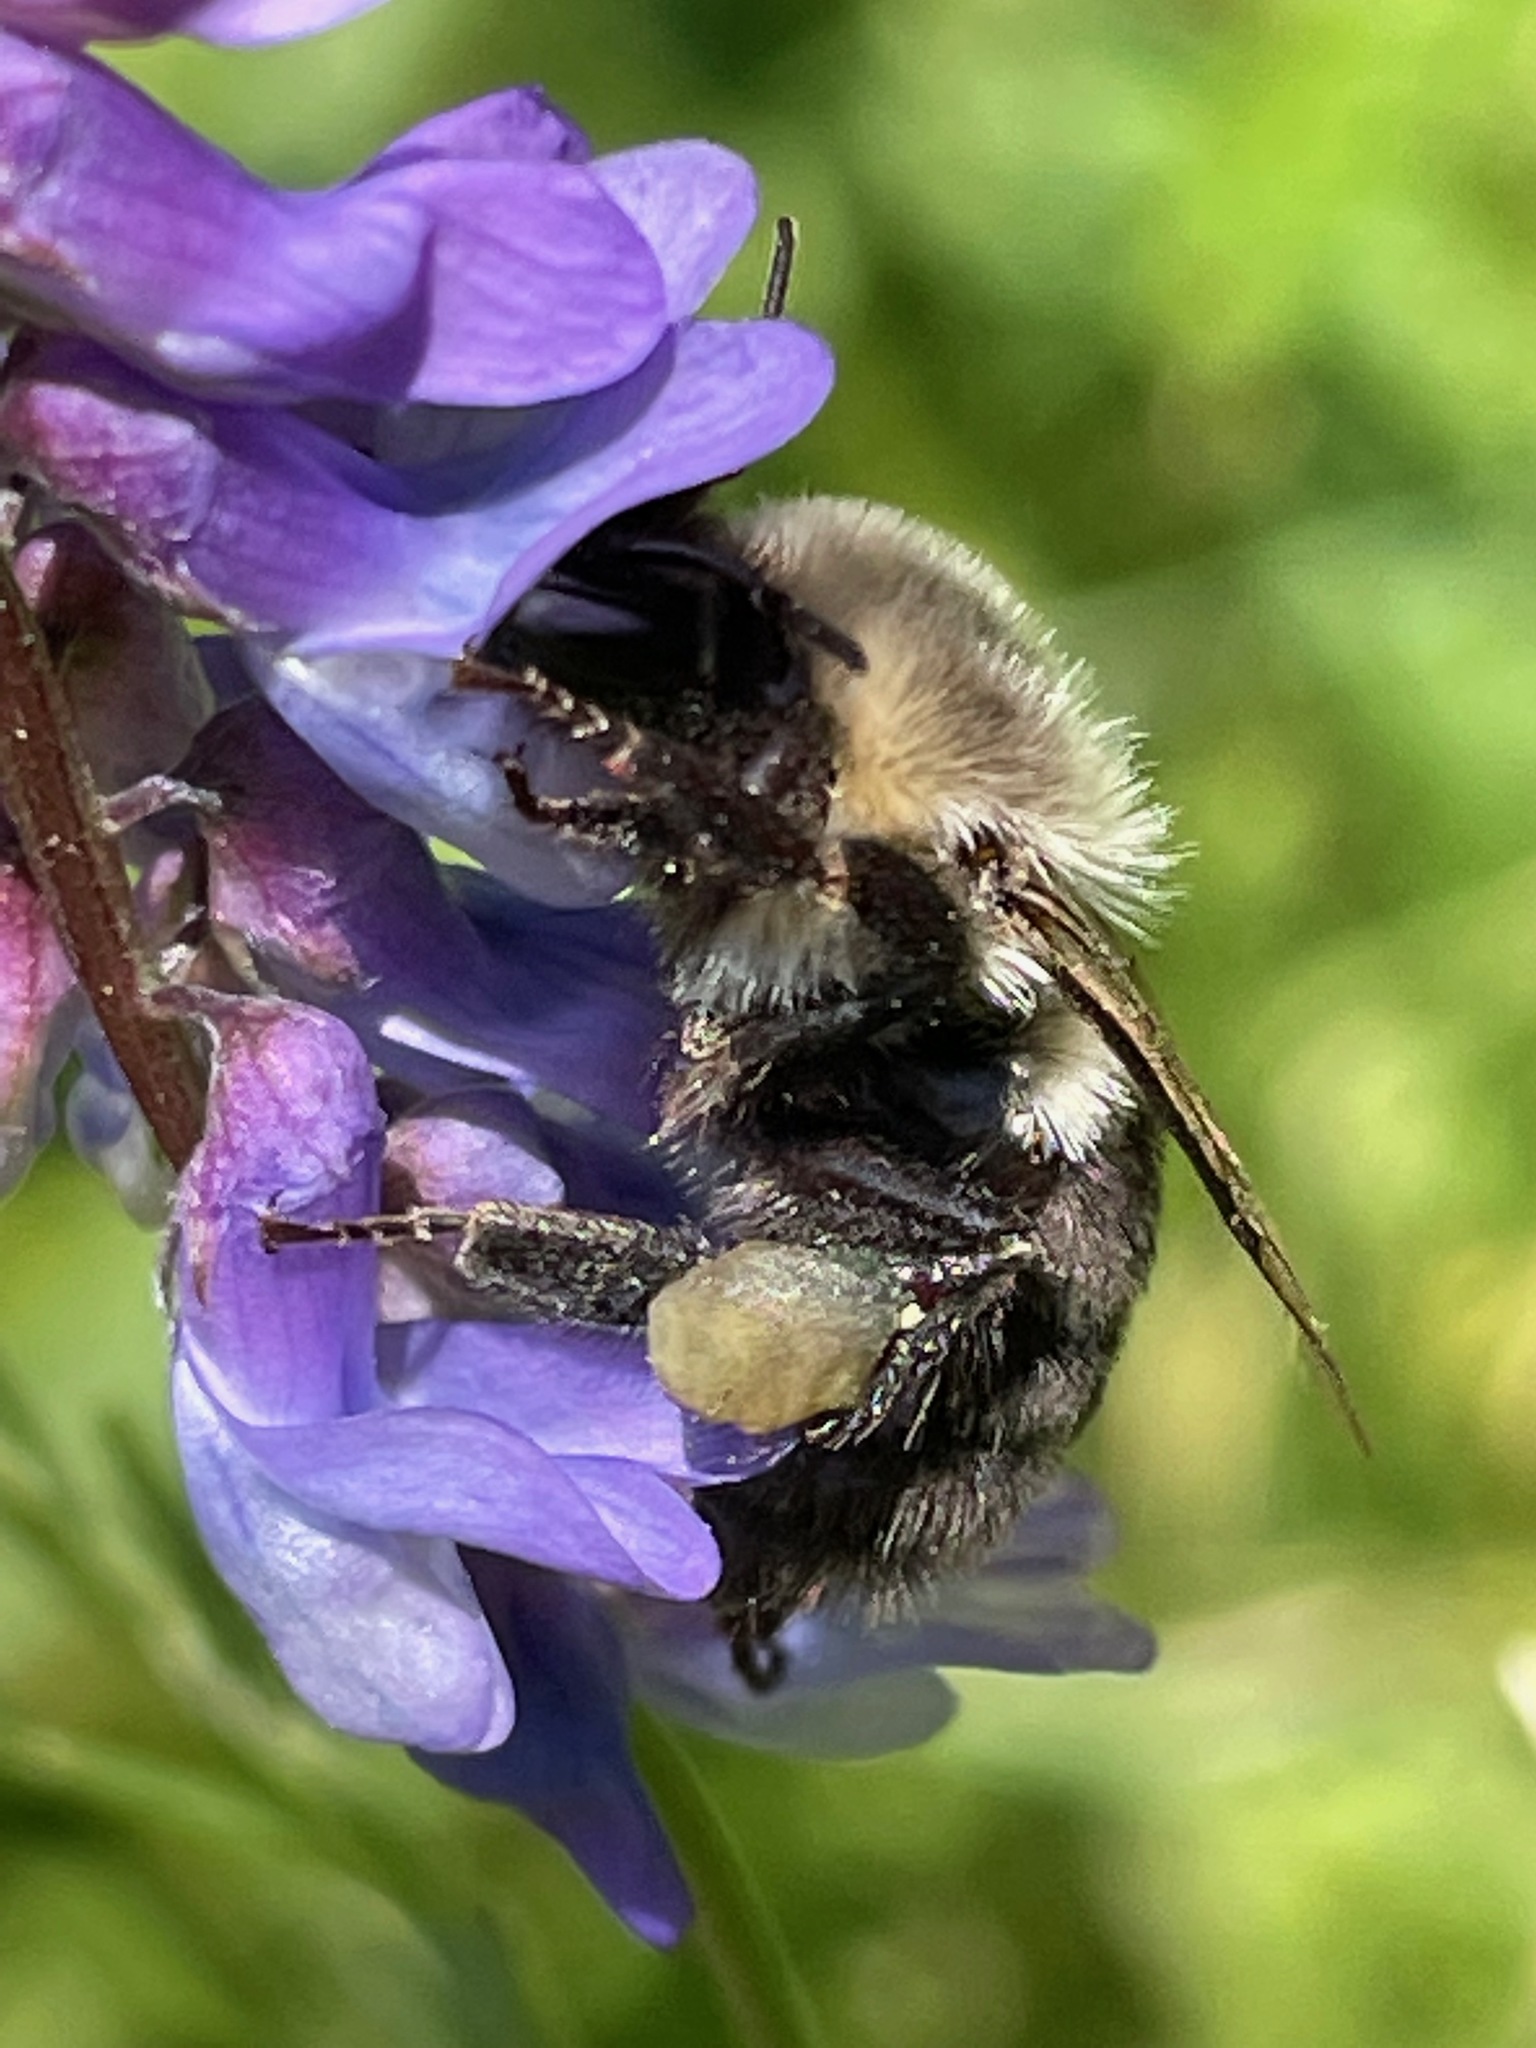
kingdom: Animalia
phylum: Arthropoda
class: Insecta
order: Hymenoptera
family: Apidae
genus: Bombus
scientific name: Bombus impatiens
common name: Common eastern bumble bee
